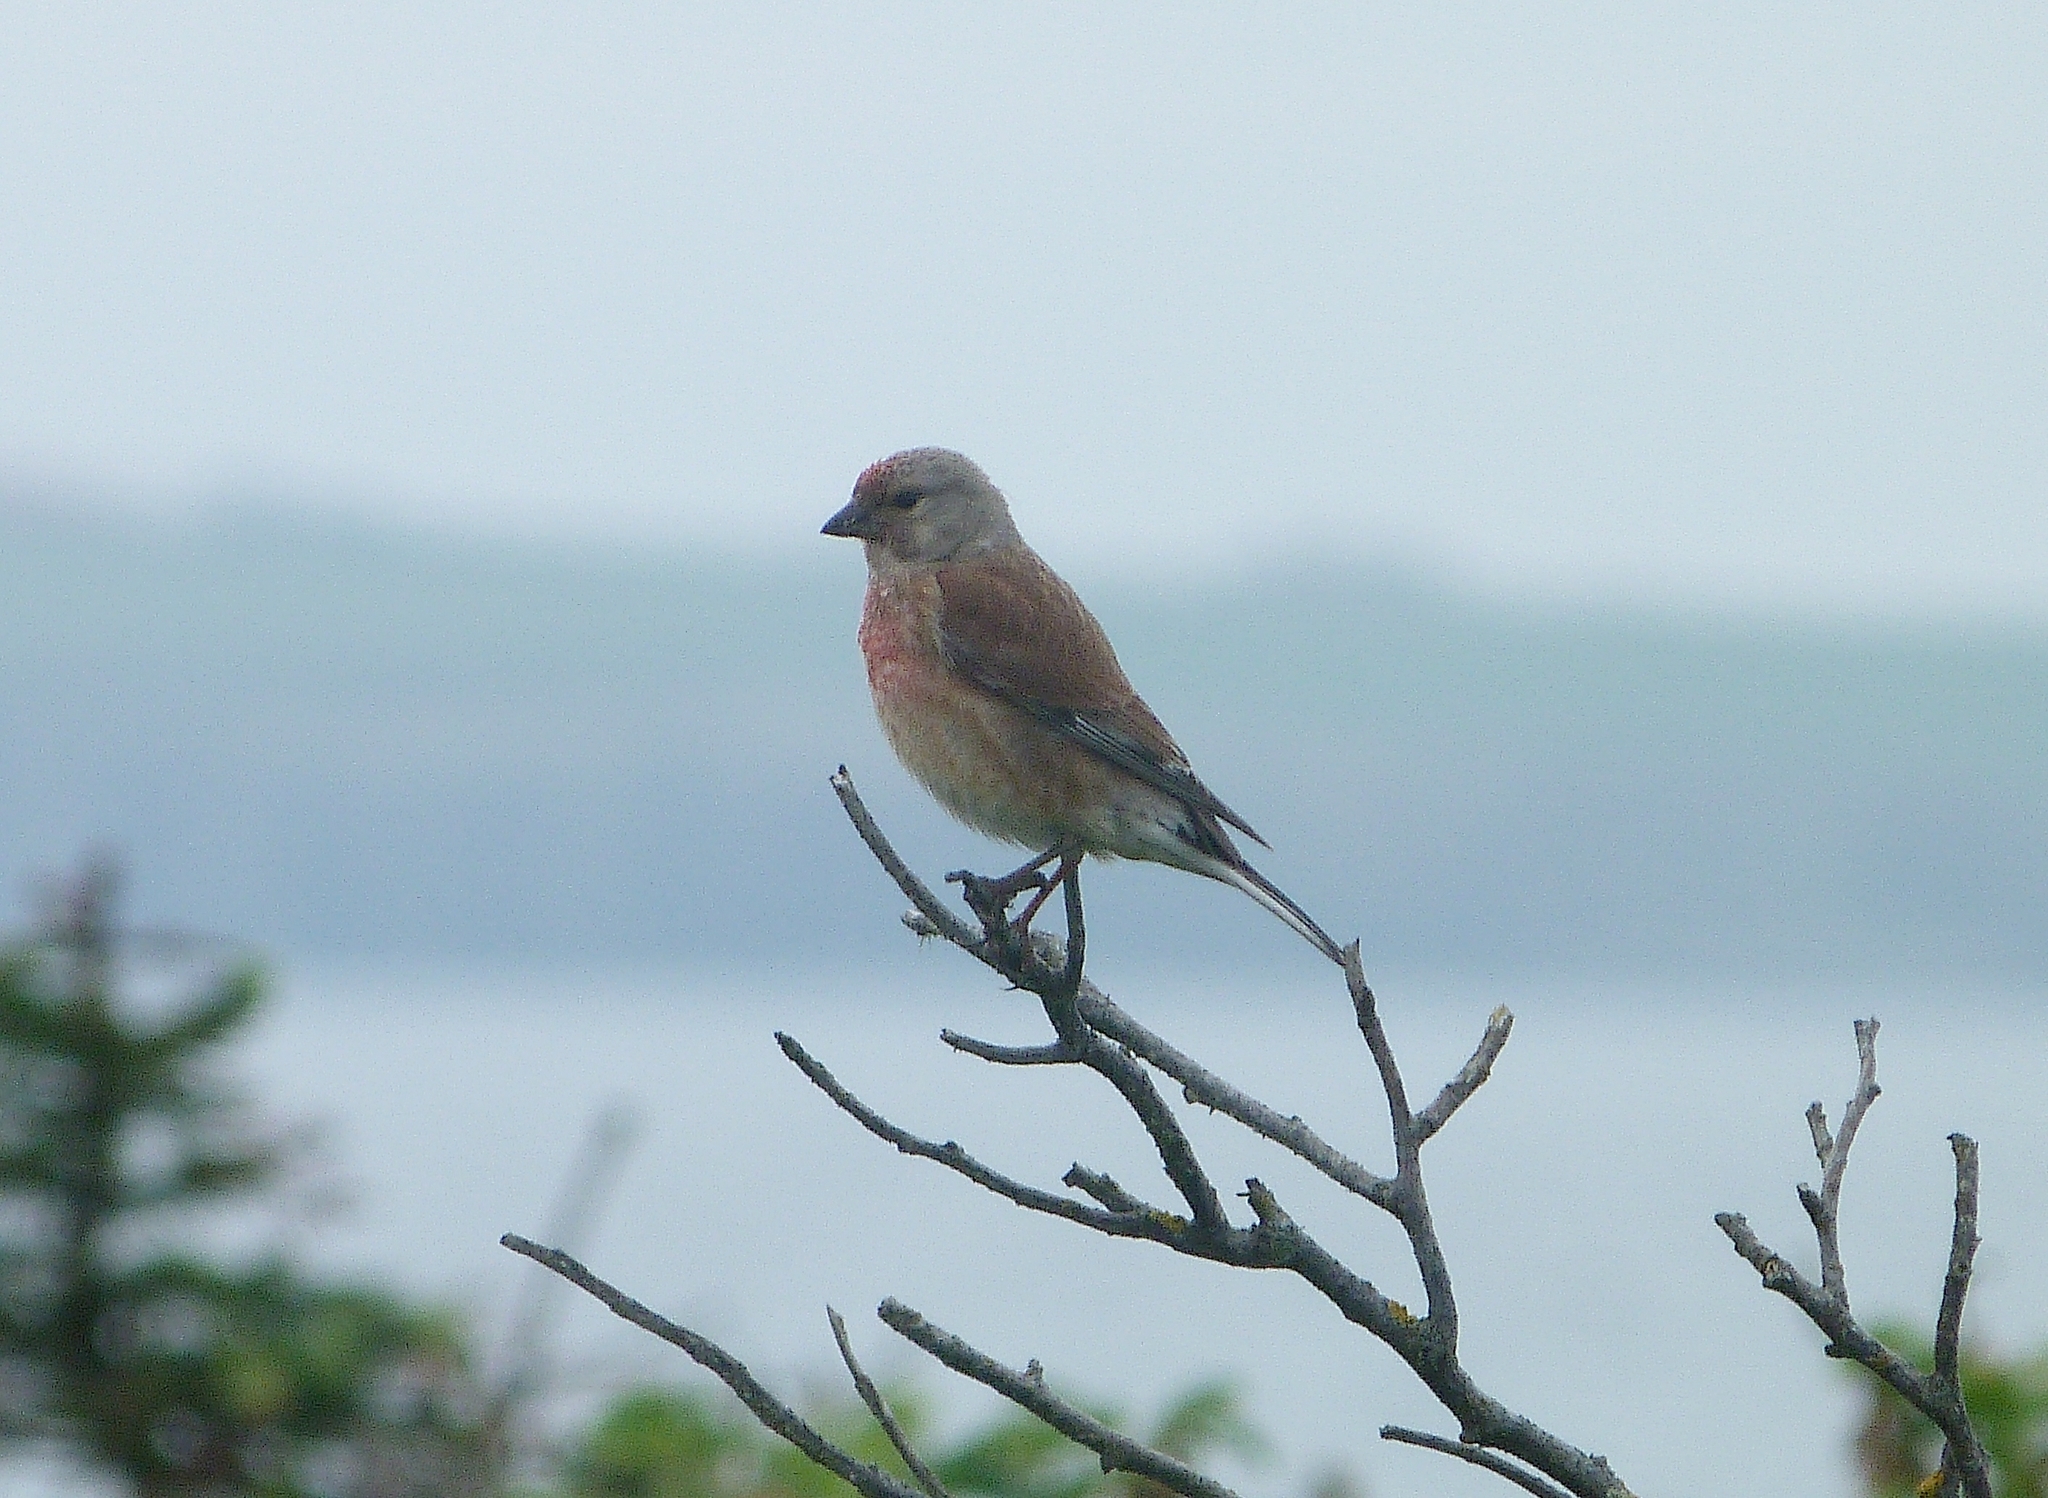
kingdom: Animalia
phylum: Chordata
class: Aves
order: Passeriformes
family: Fringillidae
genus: Linaria
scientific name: Linaria cannabina
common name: Common linnet
